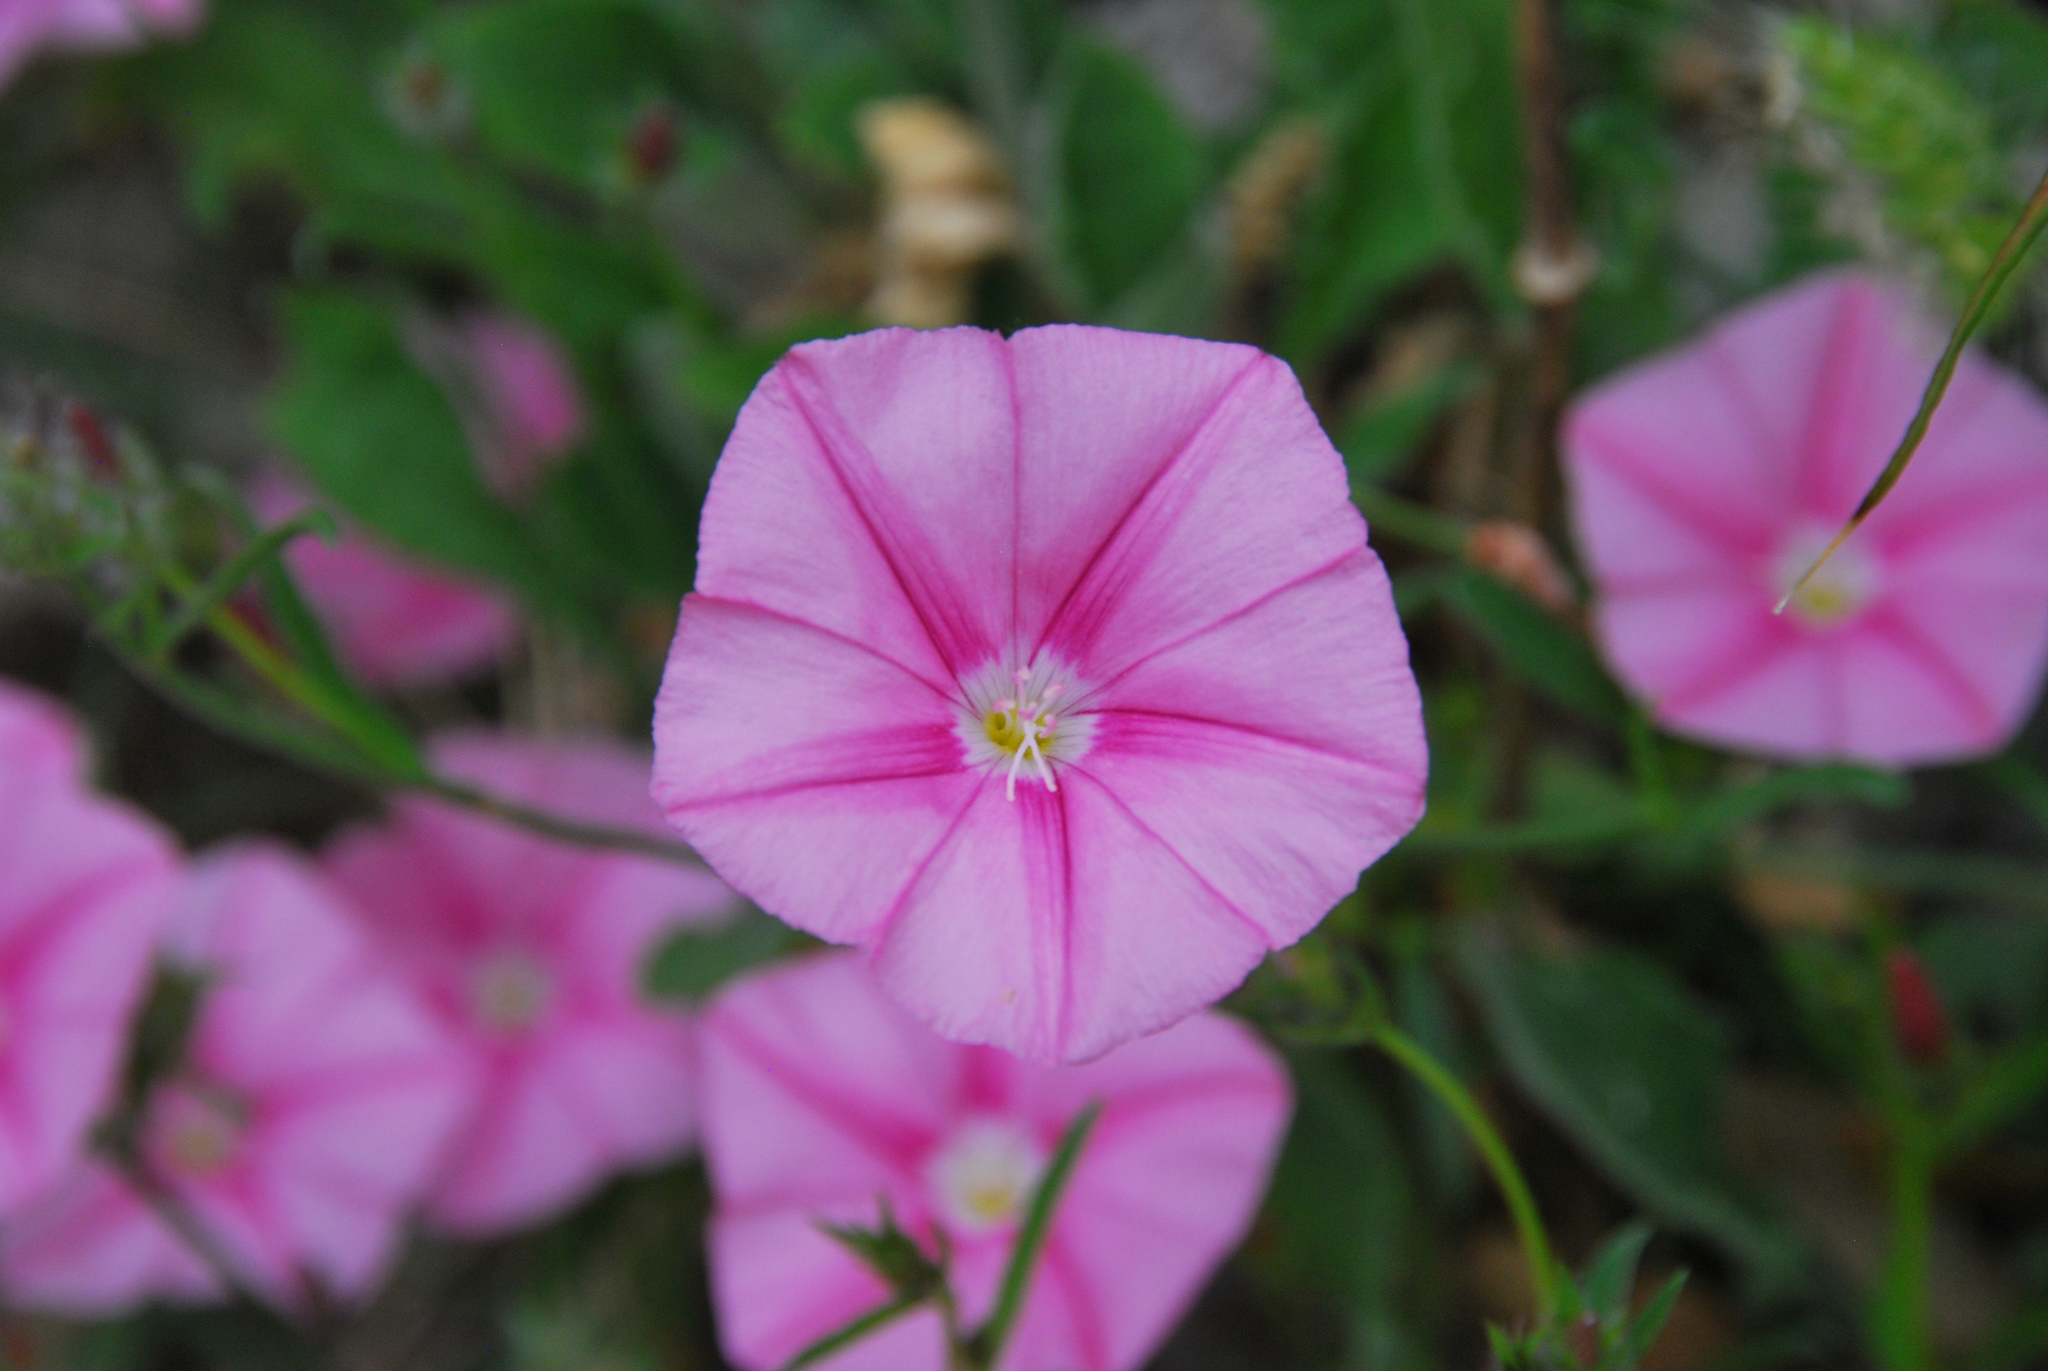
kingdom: Plantae
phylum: Tracheophyta
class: Magnoliopsida
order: Solanales
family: Convolvulaceae
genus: Convolvulus
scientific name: Convolvulus cantabrica
